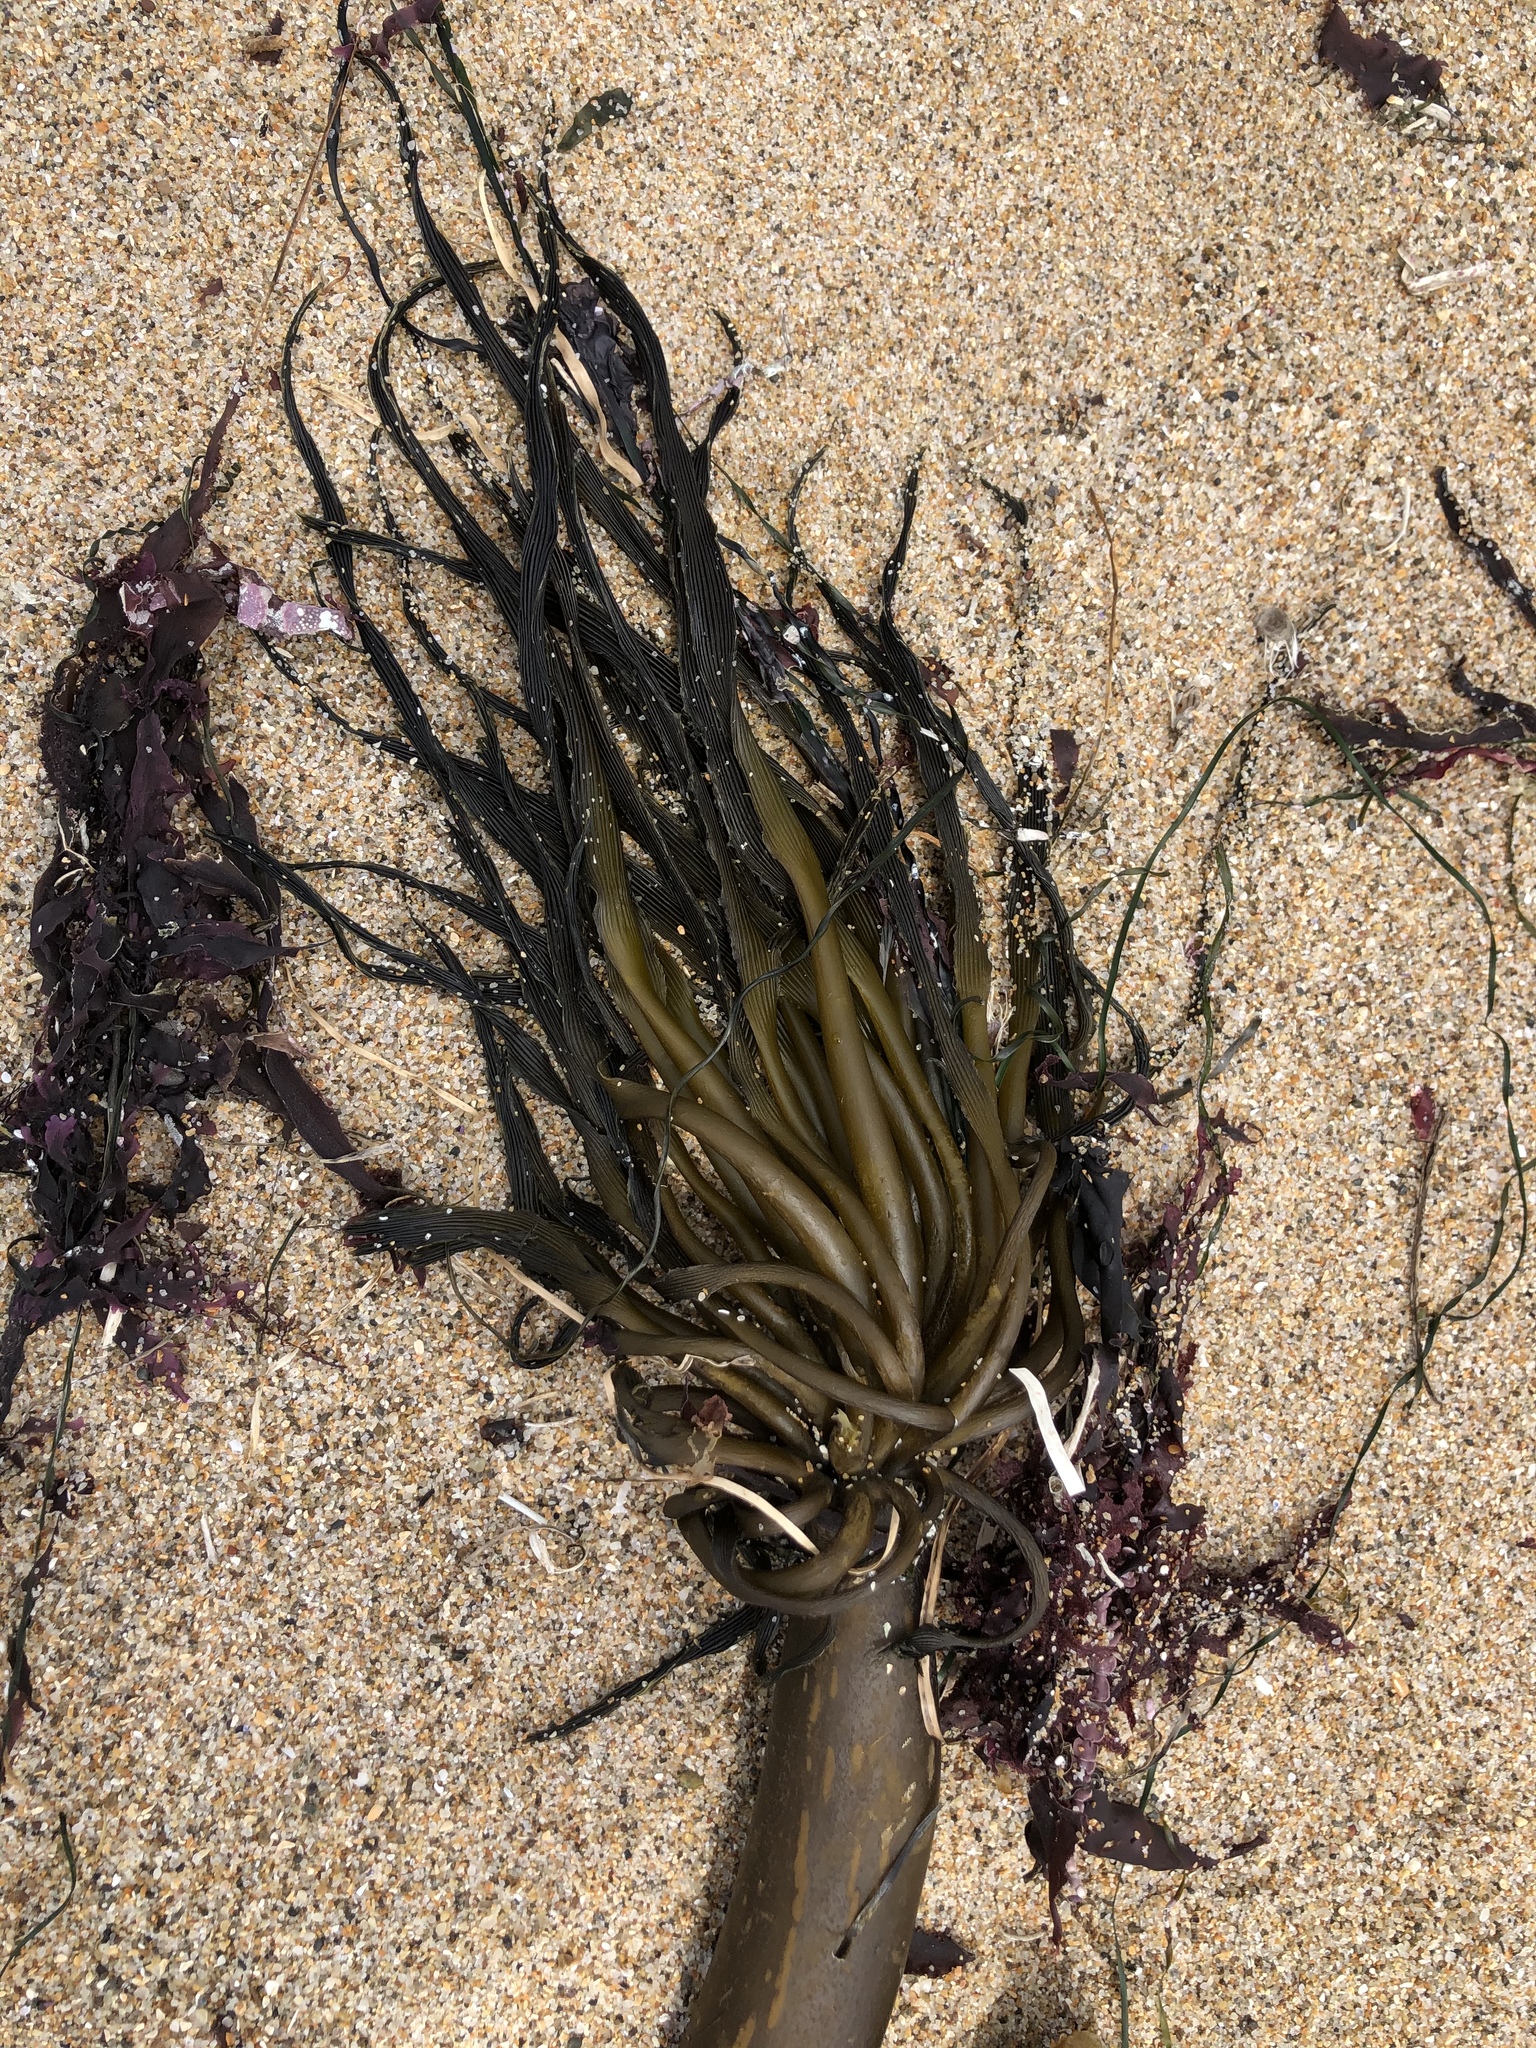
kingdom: Chromista
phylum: Ochrophyta
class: Phaeophyceae
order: Laminariales
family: Laminariaceae
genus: Postelsia
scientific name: Postelsia palmiformis
